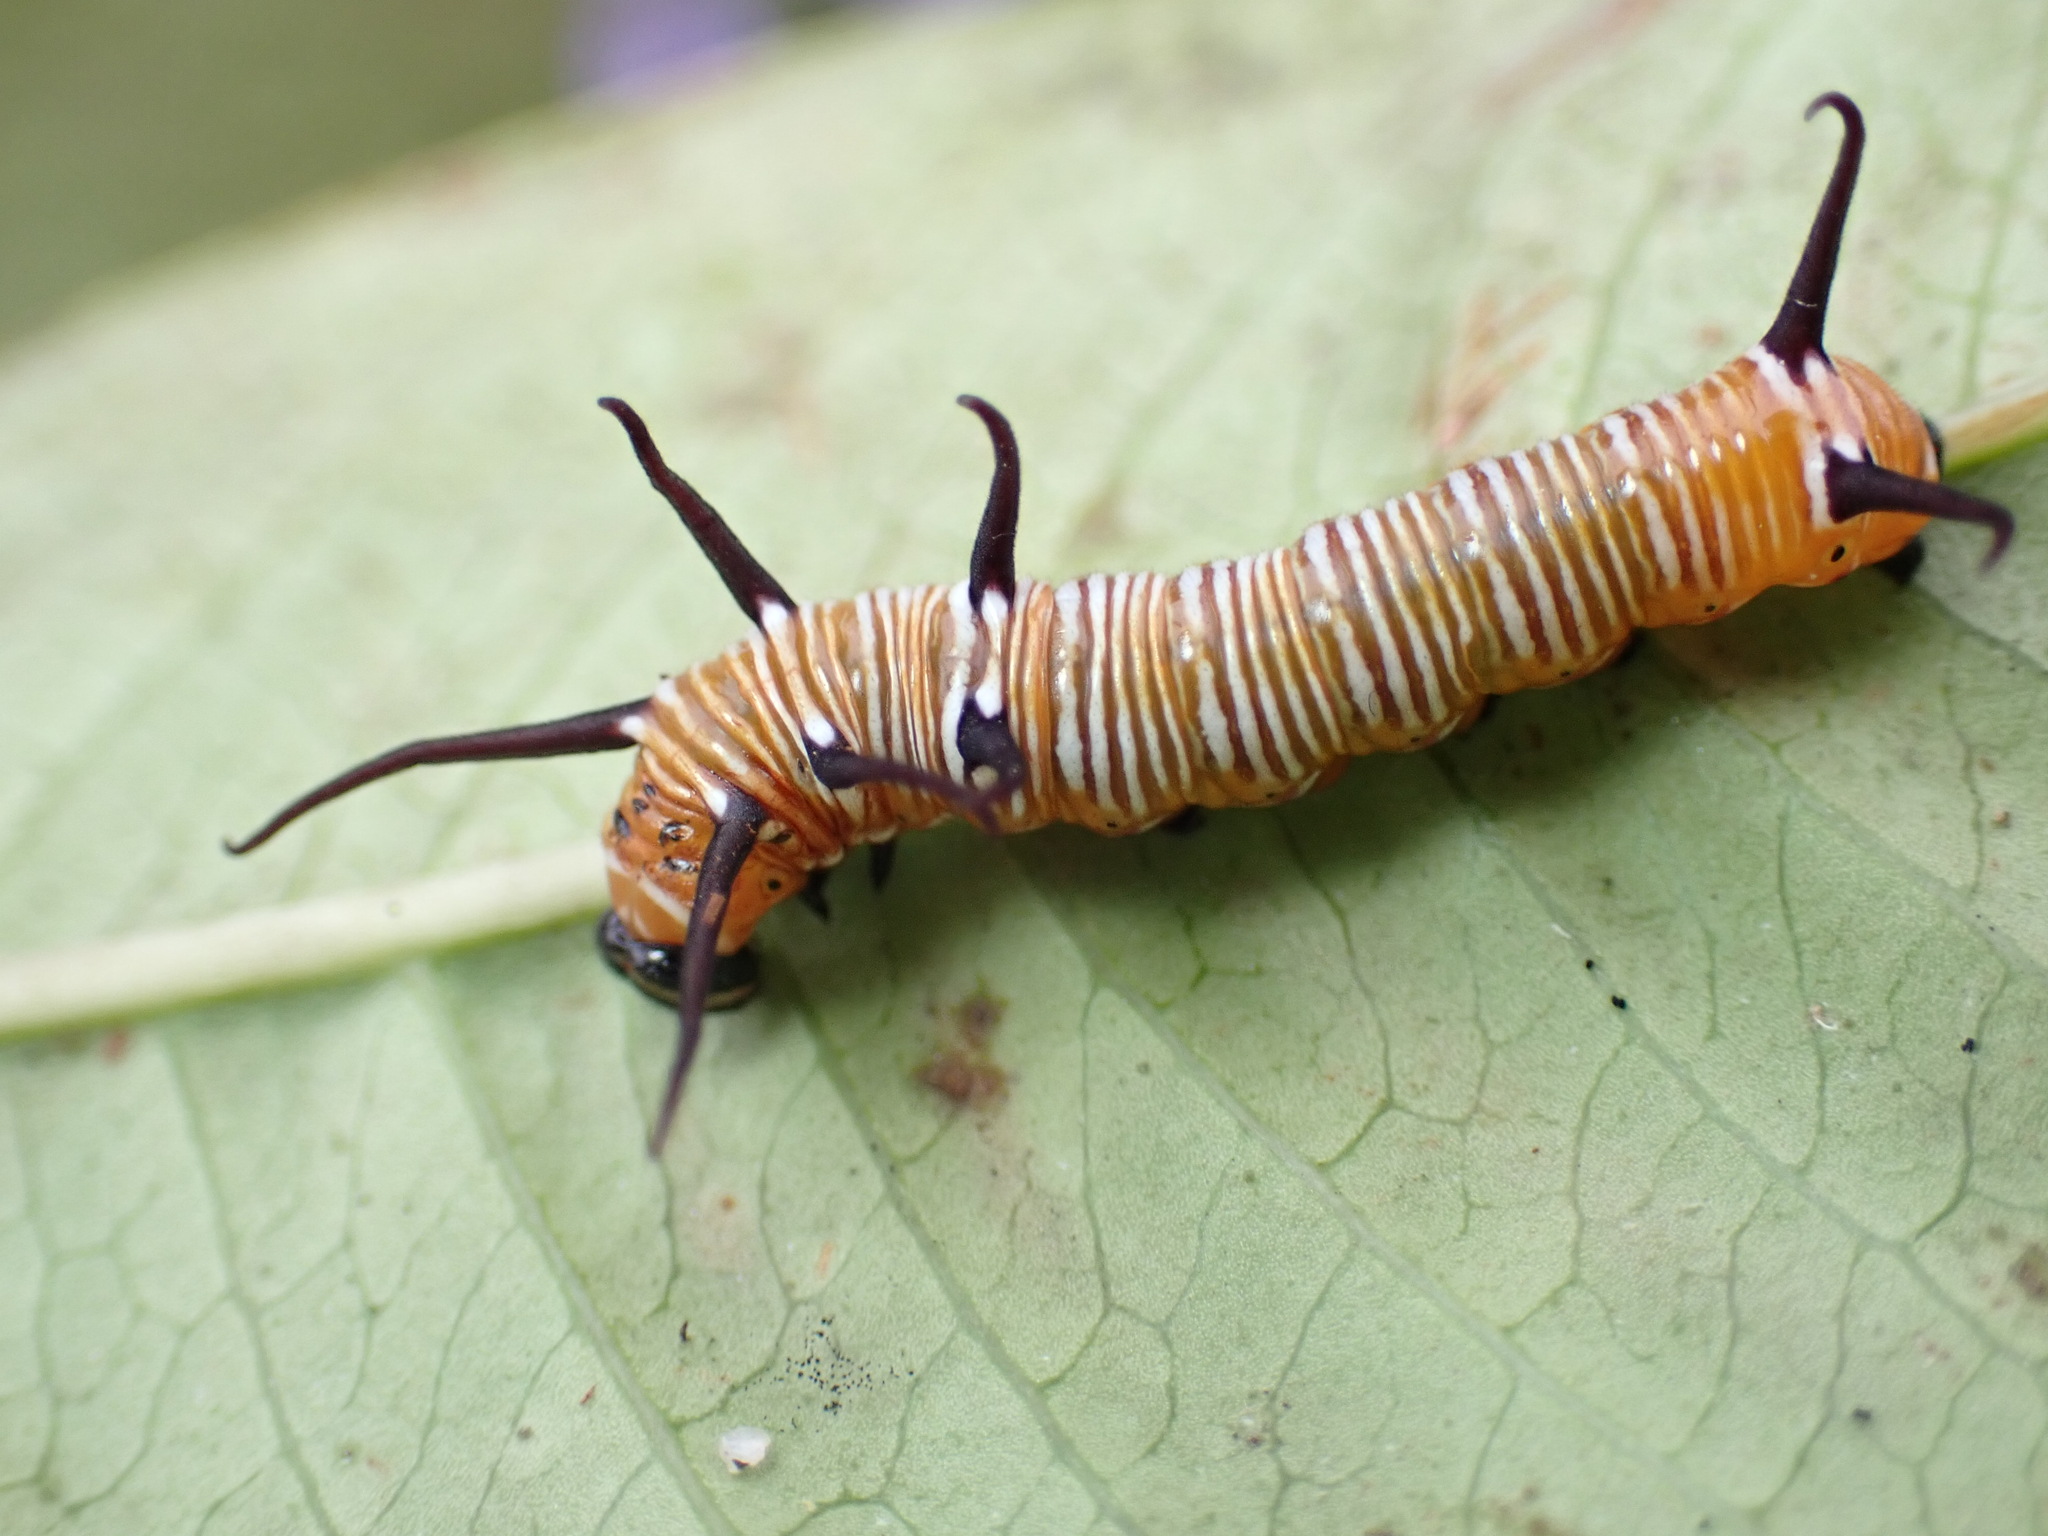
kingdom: Animalia
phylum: Arthropoda
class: Insecta
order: Lepidoptera
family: Nymphalidae
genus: Euploea
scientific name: Euploea core
